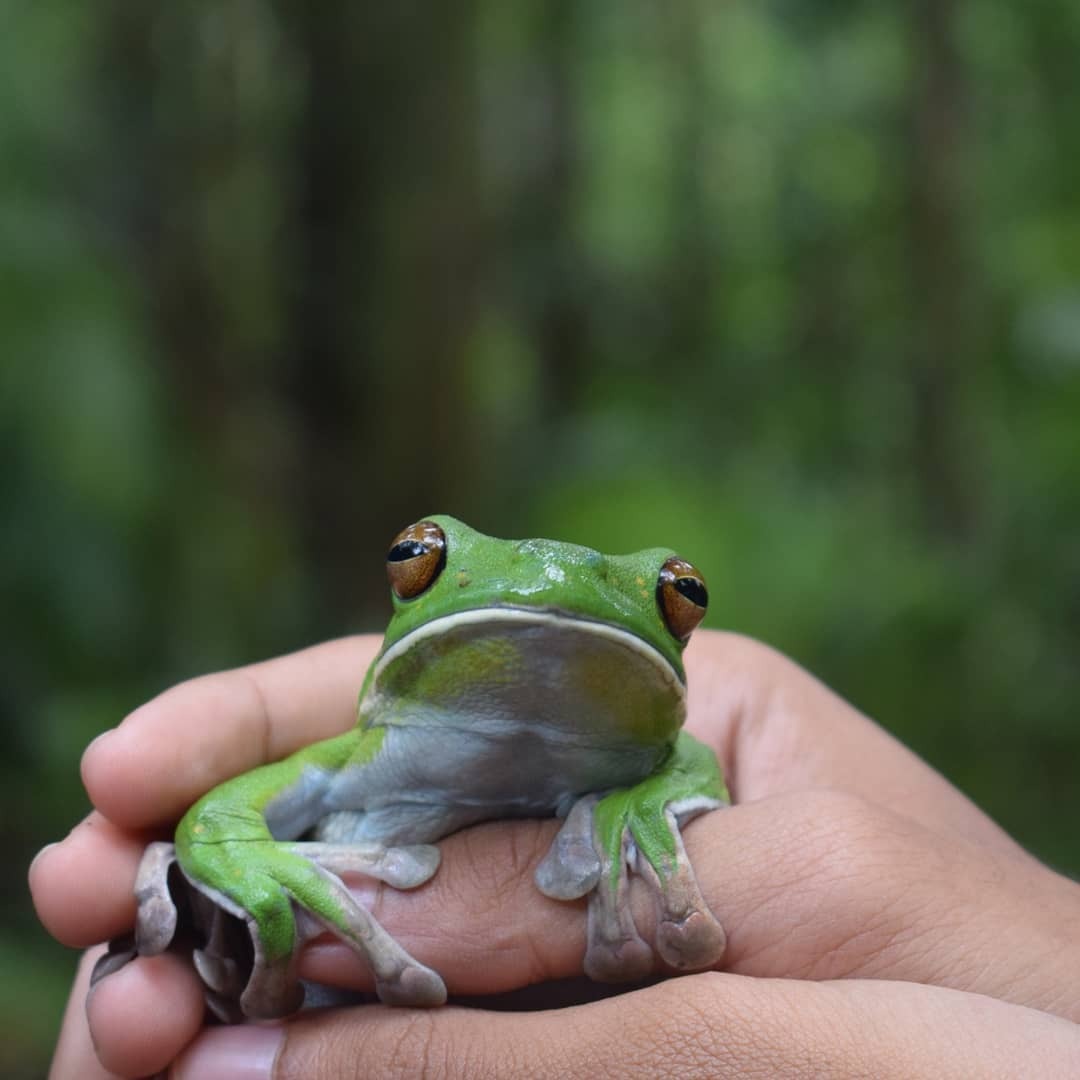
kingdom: Animalia
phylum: Chordata
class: Amphibia
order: Anura
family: Pelodryadidae
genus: Nyctimystes
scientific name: Nyctimystes
